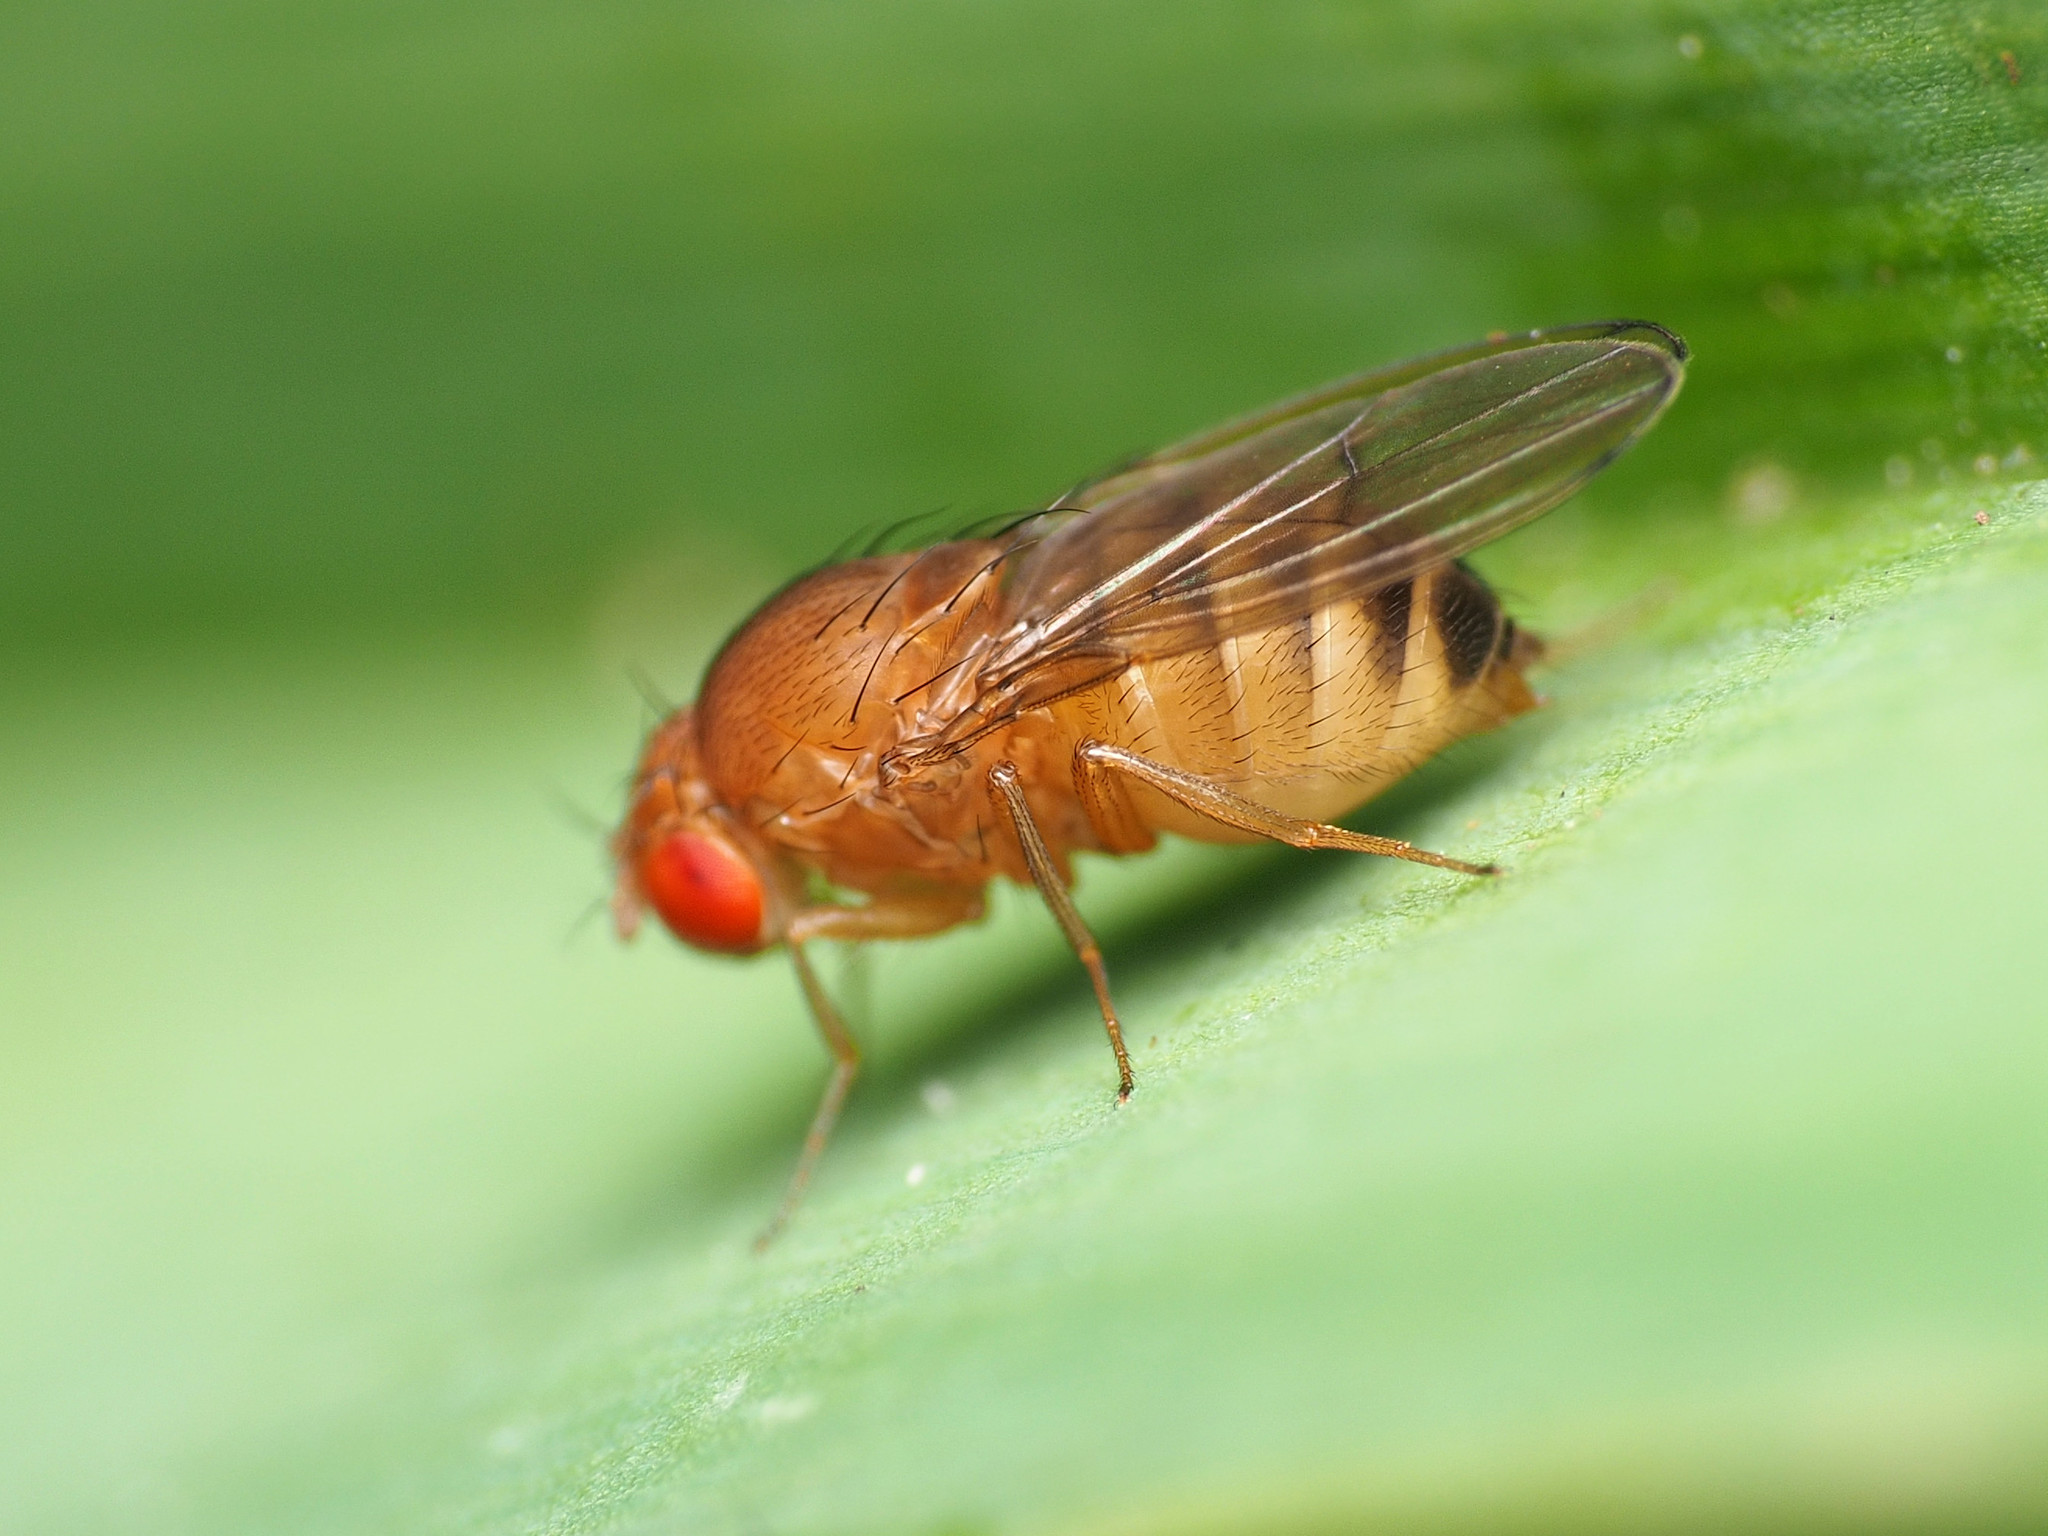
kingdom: Animalia
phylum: Arthropoda
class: Insecta
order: Diptera
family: Drosophilidae
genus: Drosophila
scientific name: Drosophila immigrans
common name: Pomace fly
